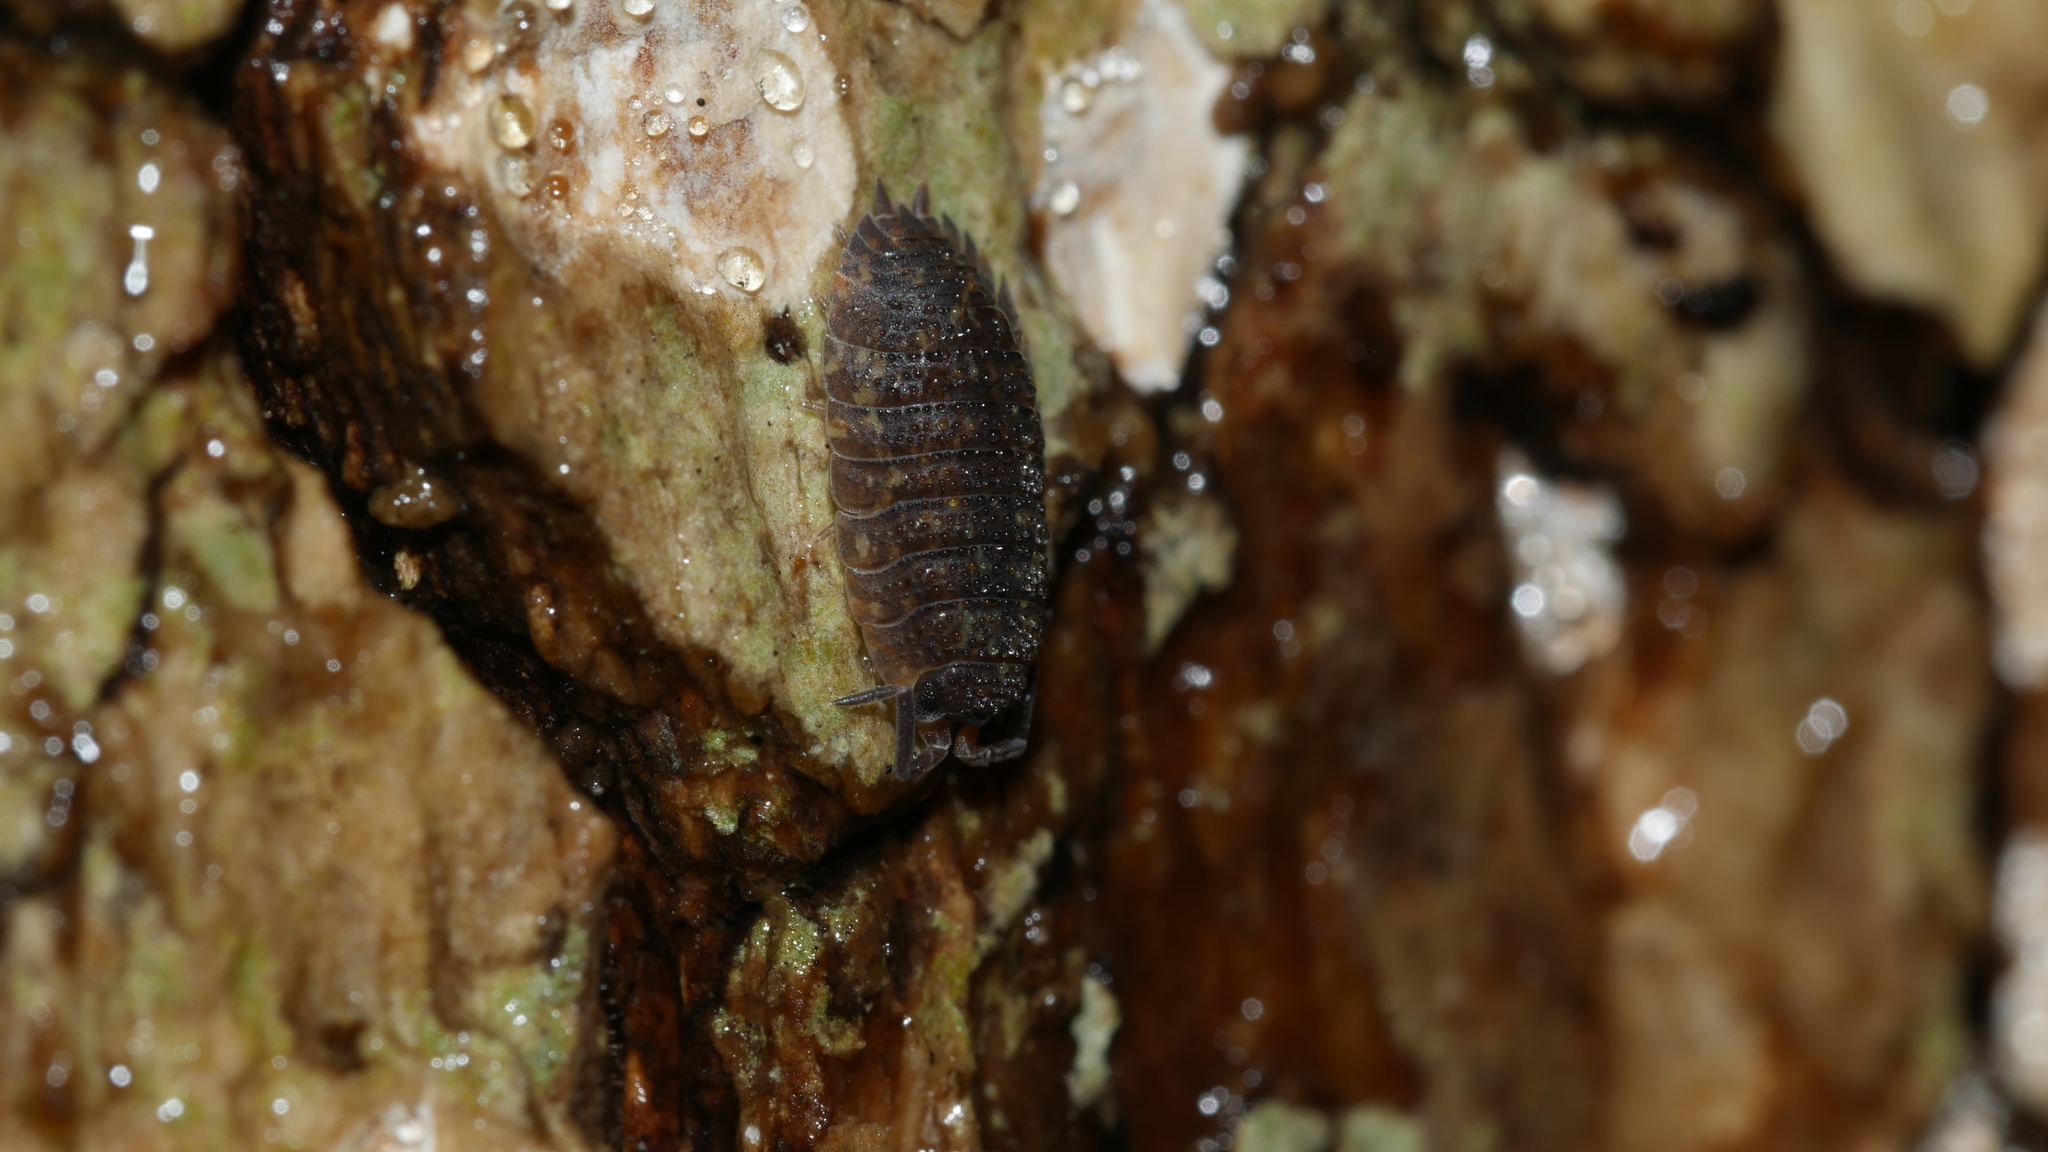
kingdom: Animalia
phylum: Arthropoda
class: Malacostraca
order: Isopoda
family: Porcellionidae
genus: Porcellio
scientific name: Porcellio scaber
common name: Common rough woodlouse
